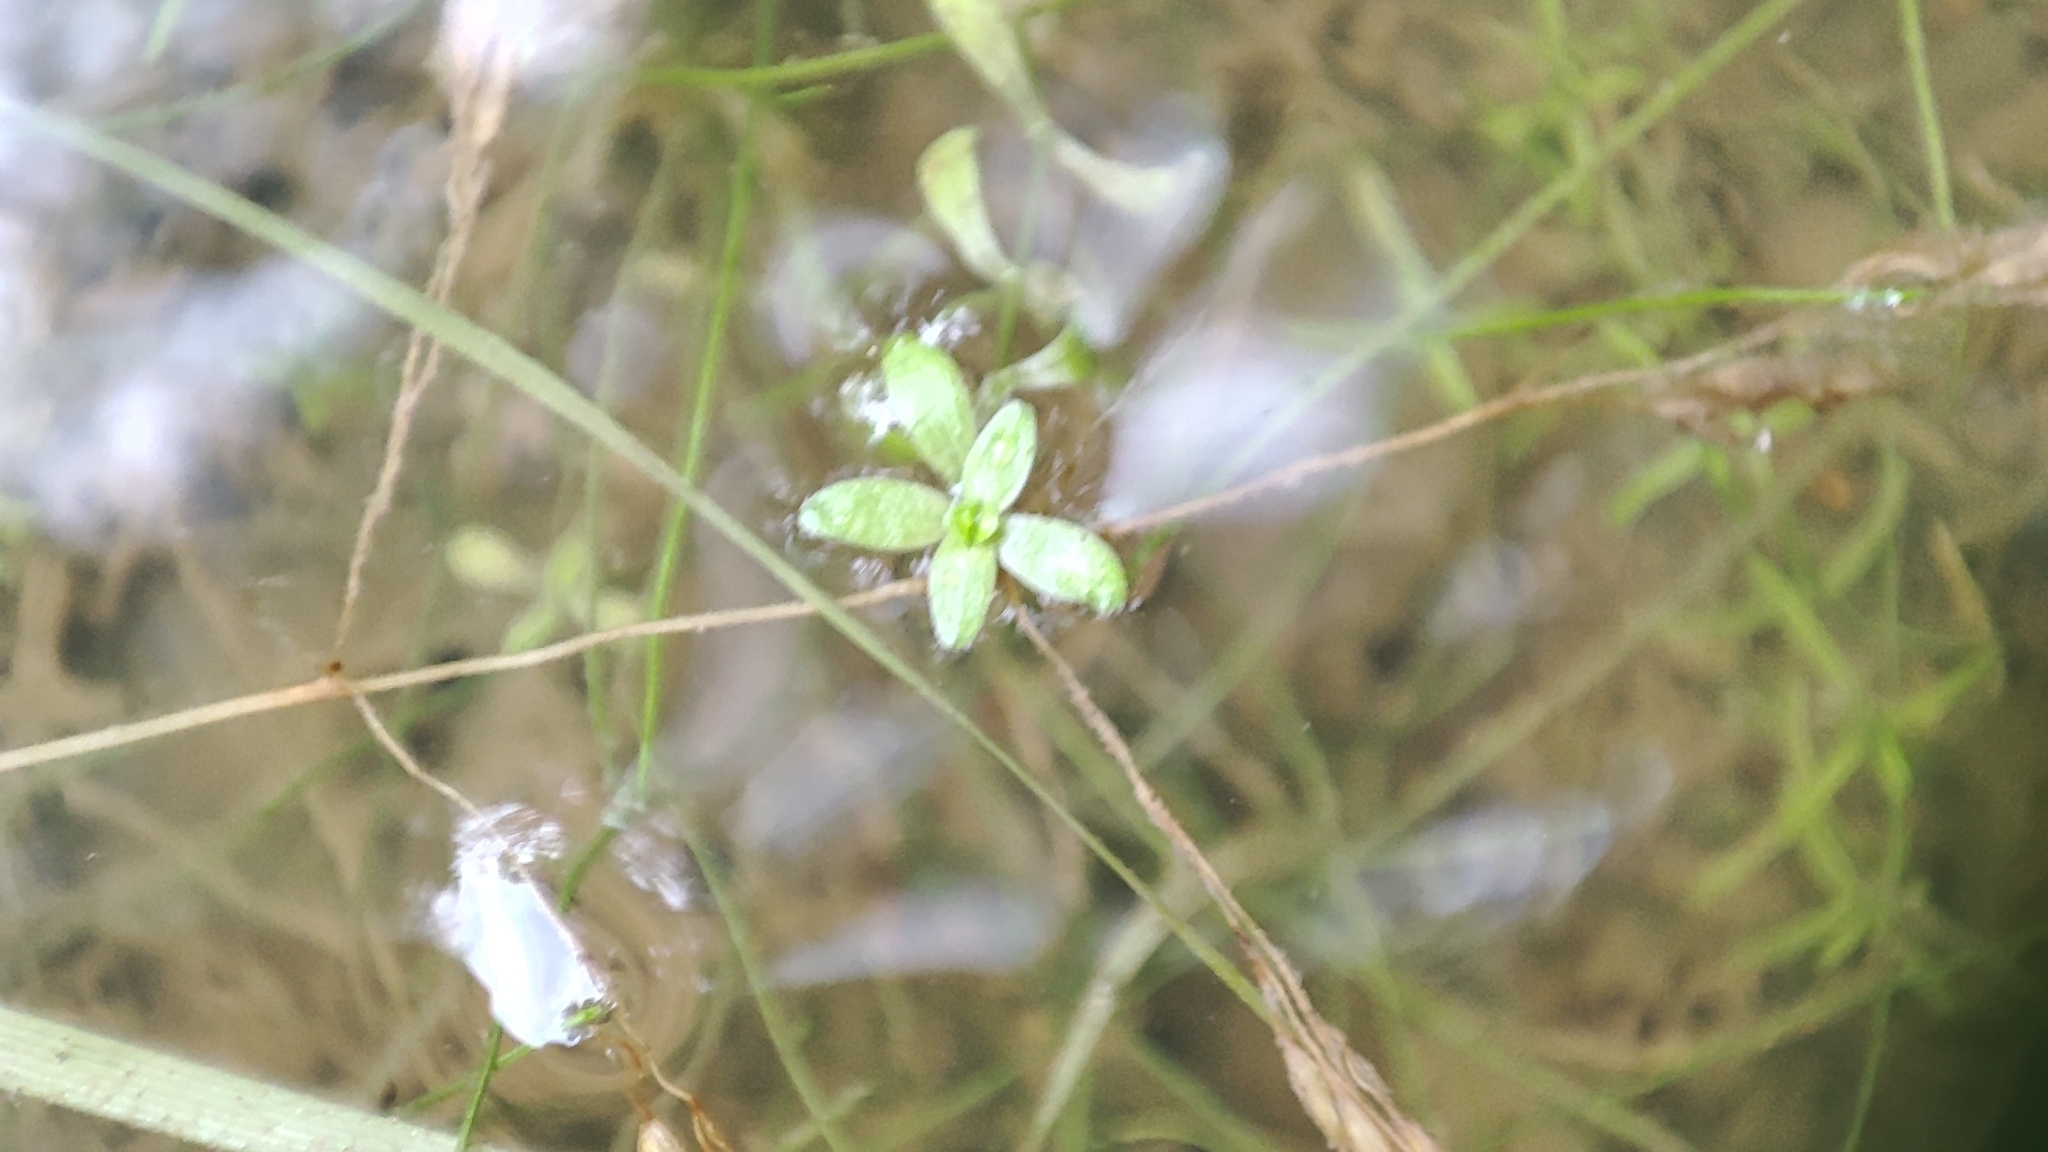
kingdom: Plantae
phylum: Tracheophyta
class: Magnoliopsida
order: Lamiales
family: Plantaginaceae
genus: Callitriche
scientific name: Callitriche palustris
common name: Spring water-starwort
